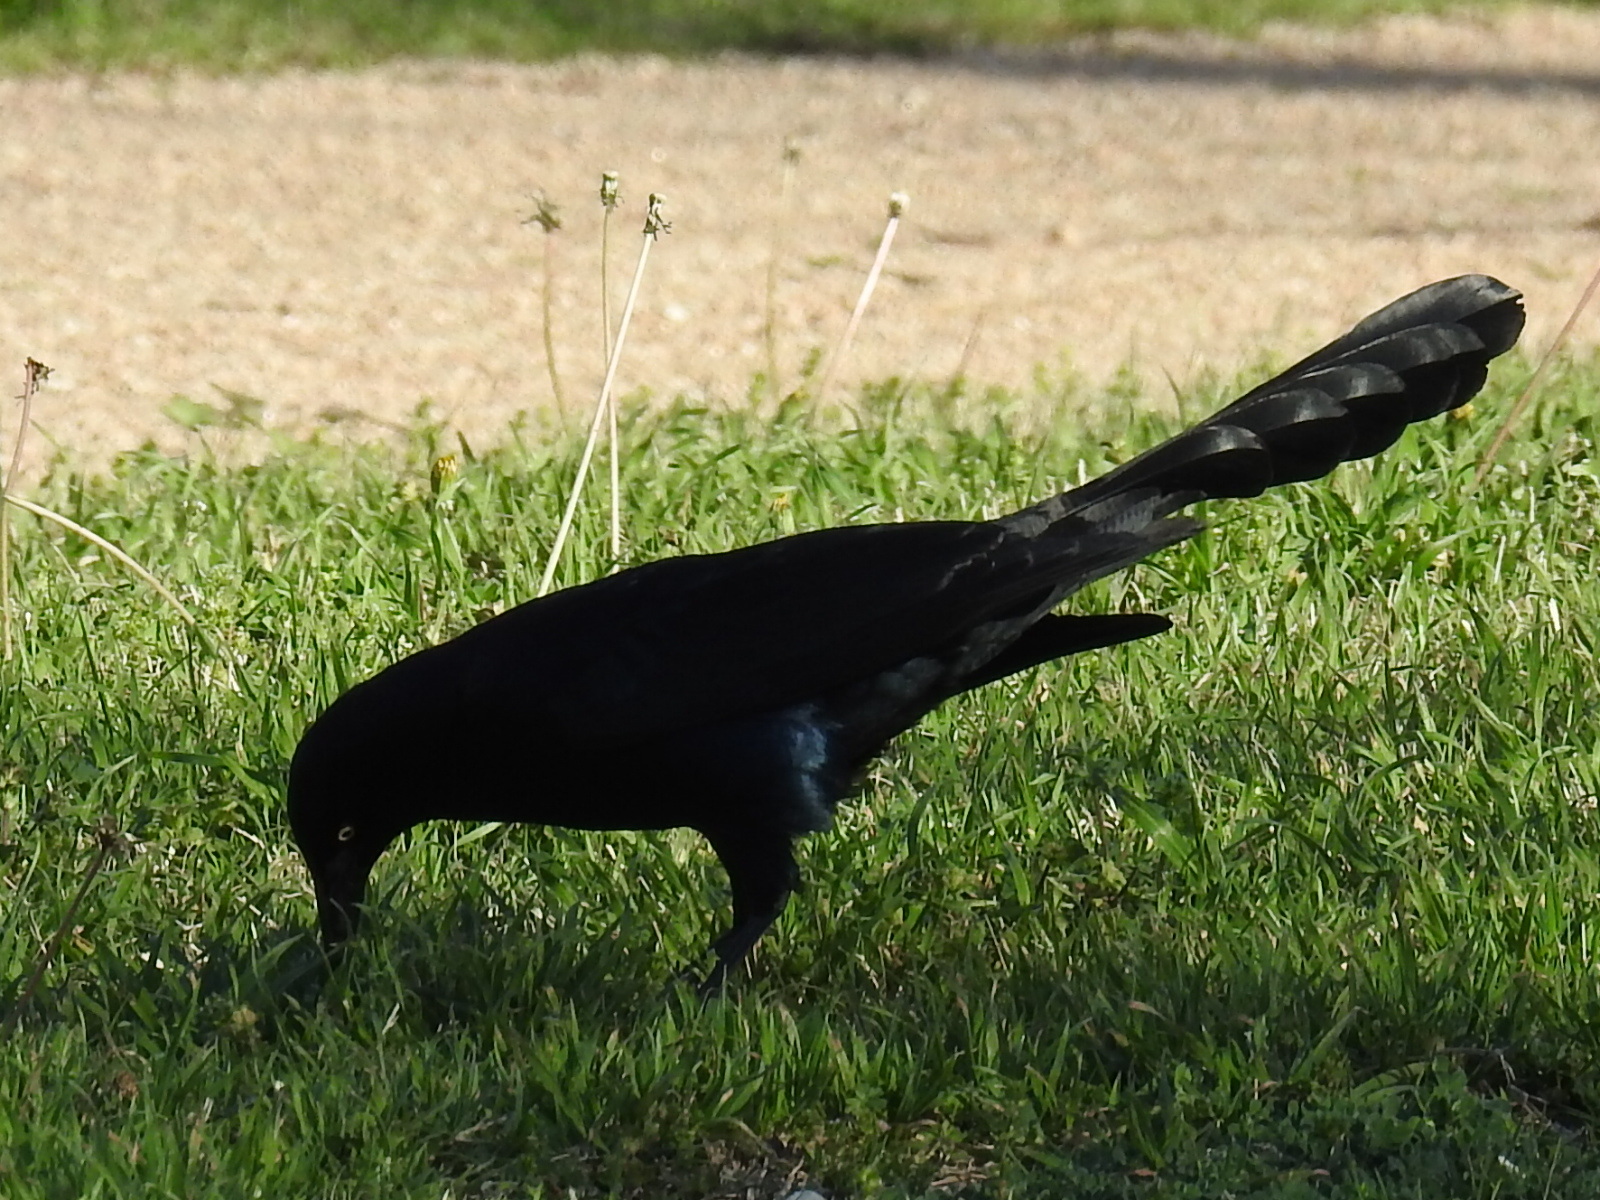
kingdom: Animalia
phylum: Chordata
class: Aves
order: Passeriformes
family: Icteridae
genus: Quiscalus
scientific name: Quiscalus mexicanus
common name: Great-tailed grackle
